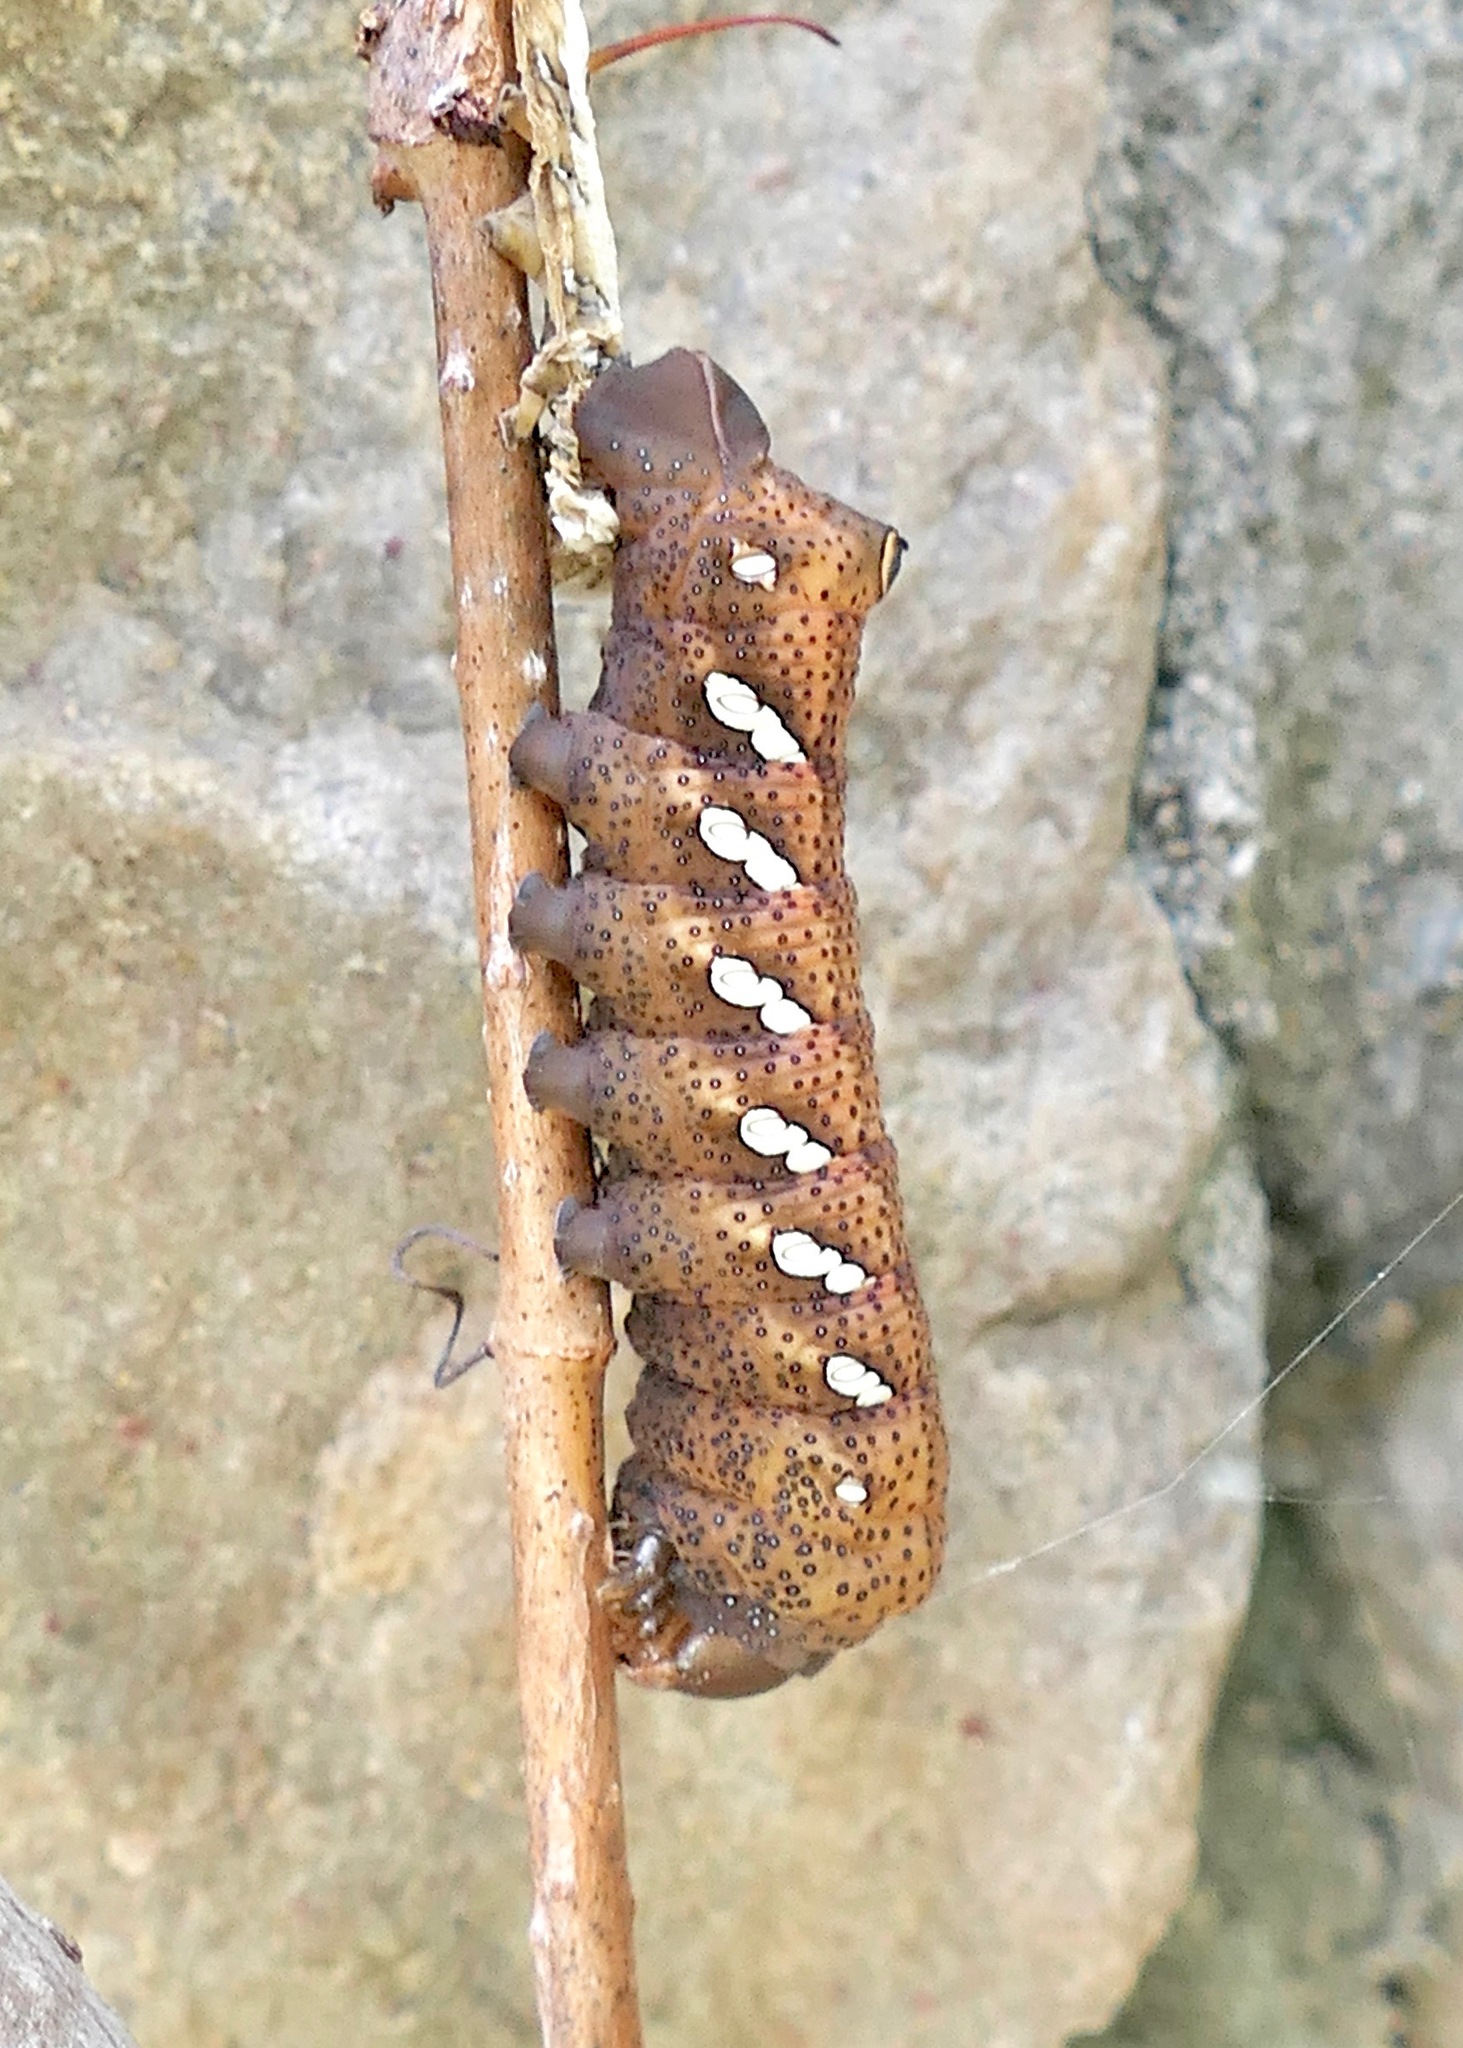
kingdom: Animalia
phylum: Arthropoda
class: Insecta
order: Lepidoptera
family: Sphingidae
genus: Eumorpha
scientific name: Eumorpha achemon
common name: Achemon sphinx
